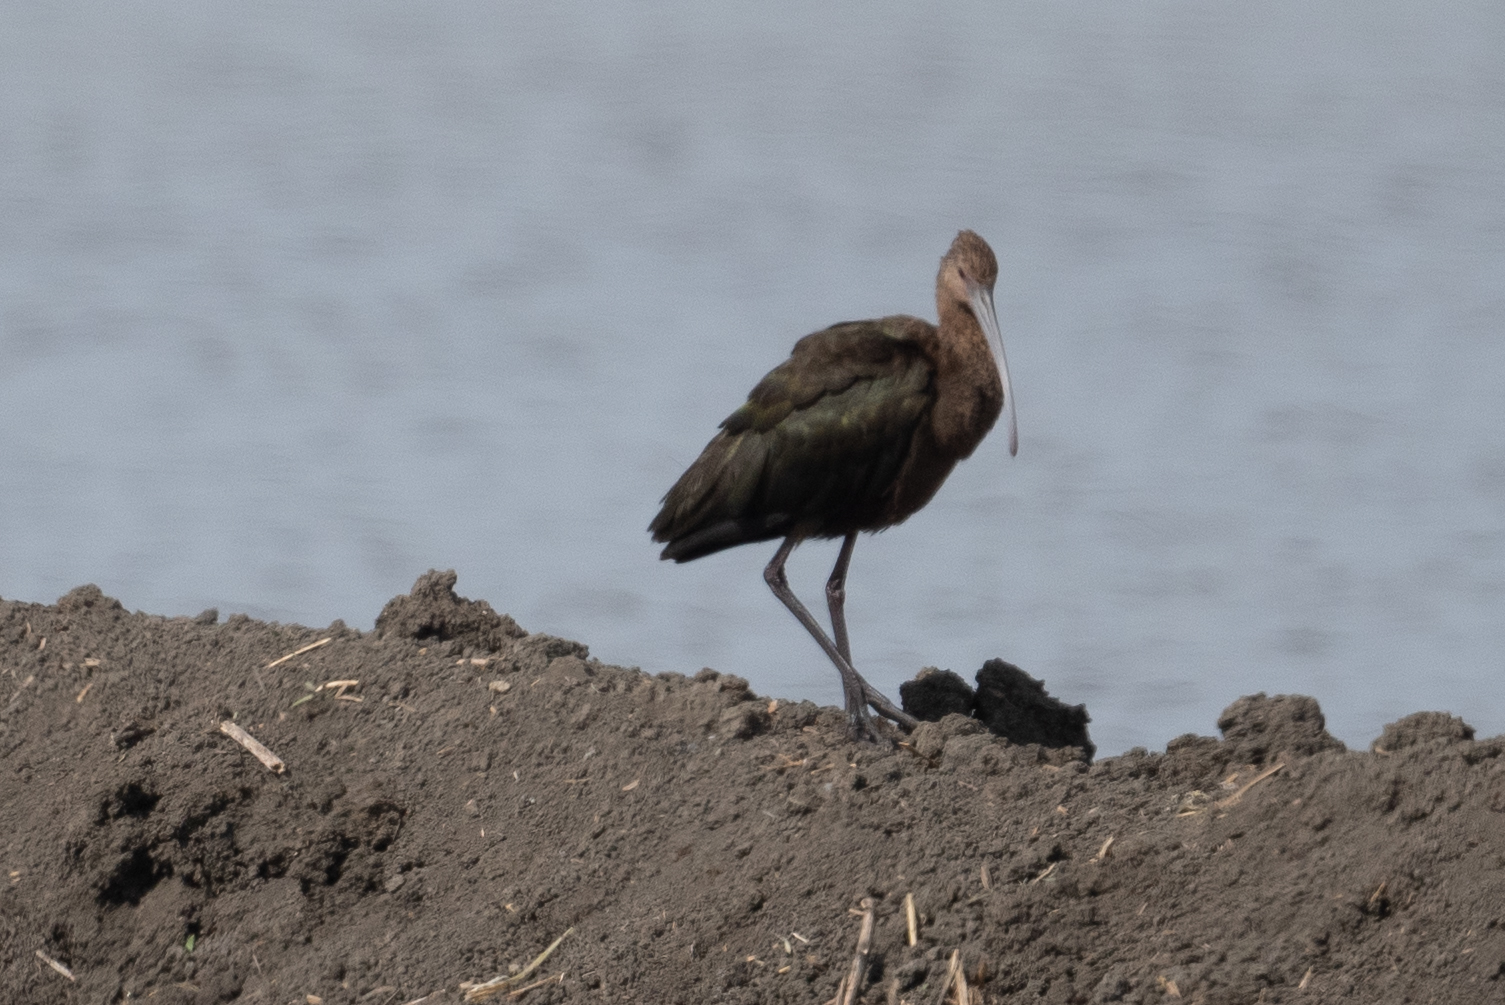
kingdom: Animalia
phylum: Chordata
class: Aves
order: Pelecaniformes
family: Threskiornithidae
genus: Plegadis
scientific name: Plegadis chihi
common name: White-faced ibis
